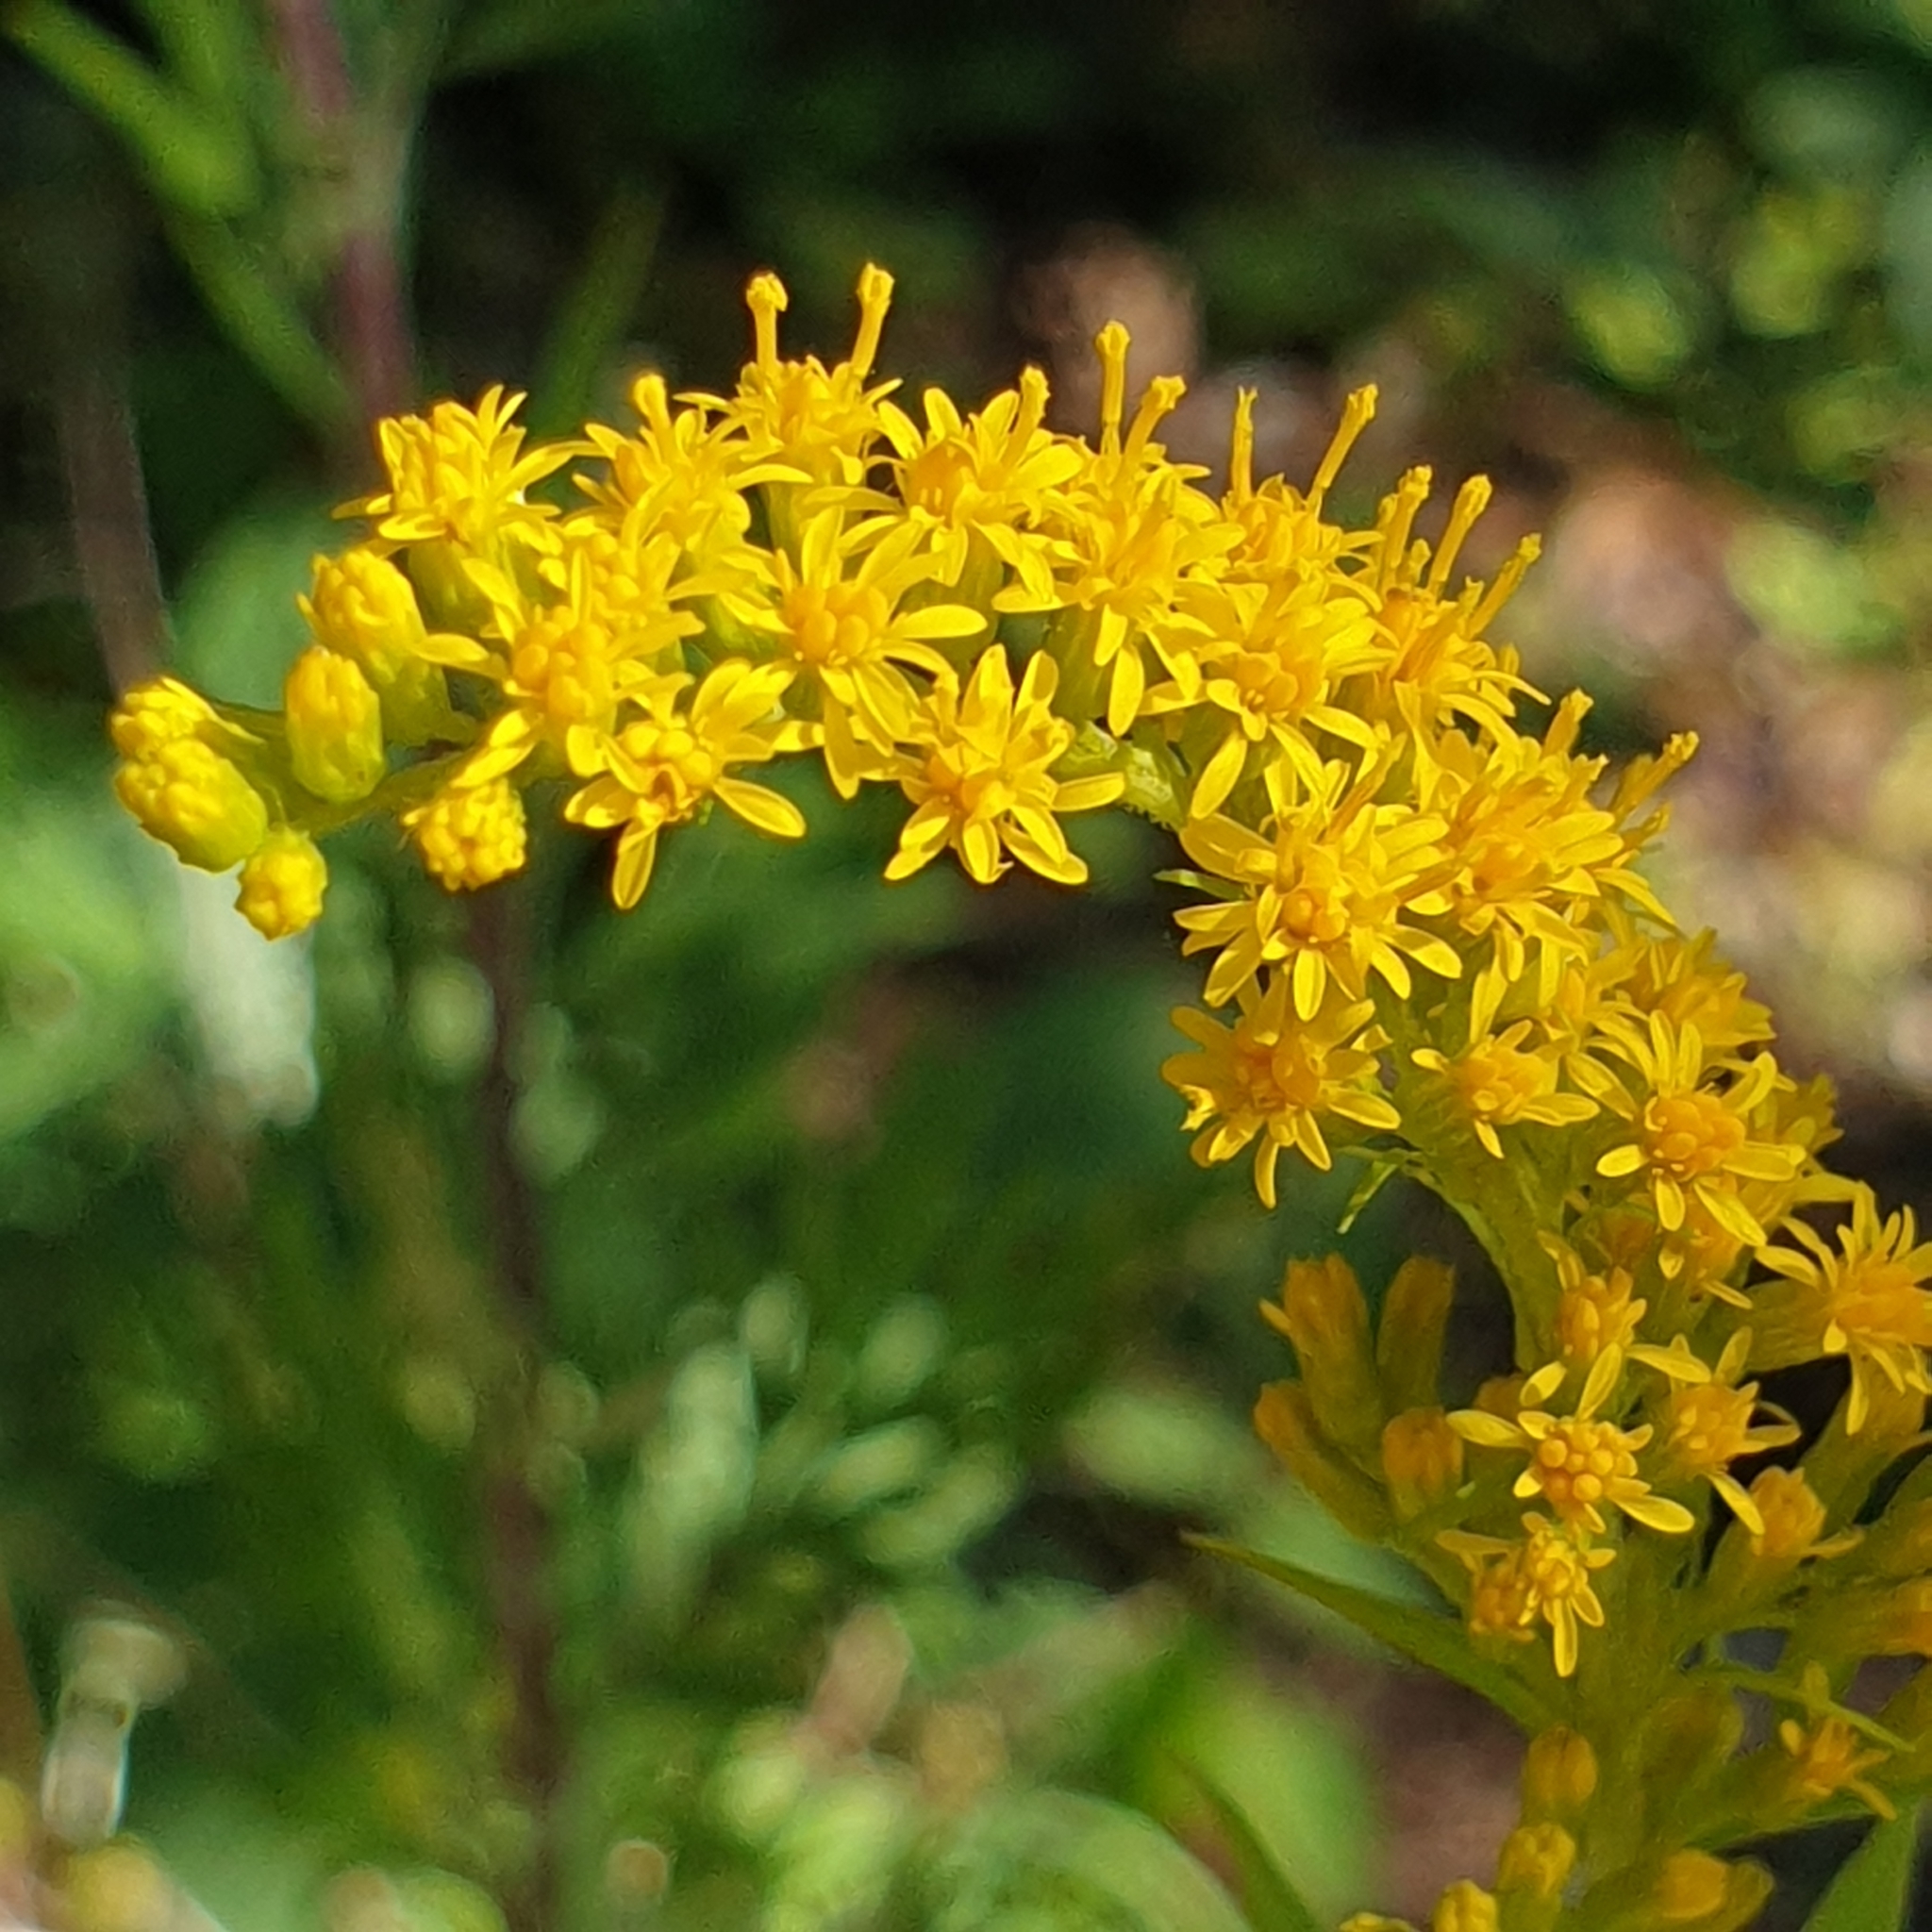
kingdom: Plantae
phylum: Tracheophyta
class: Magnoliopsida
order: Asterales
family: Asteraceae
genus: Solidago
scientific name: Solidago virgaurea
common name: Goldenrod
